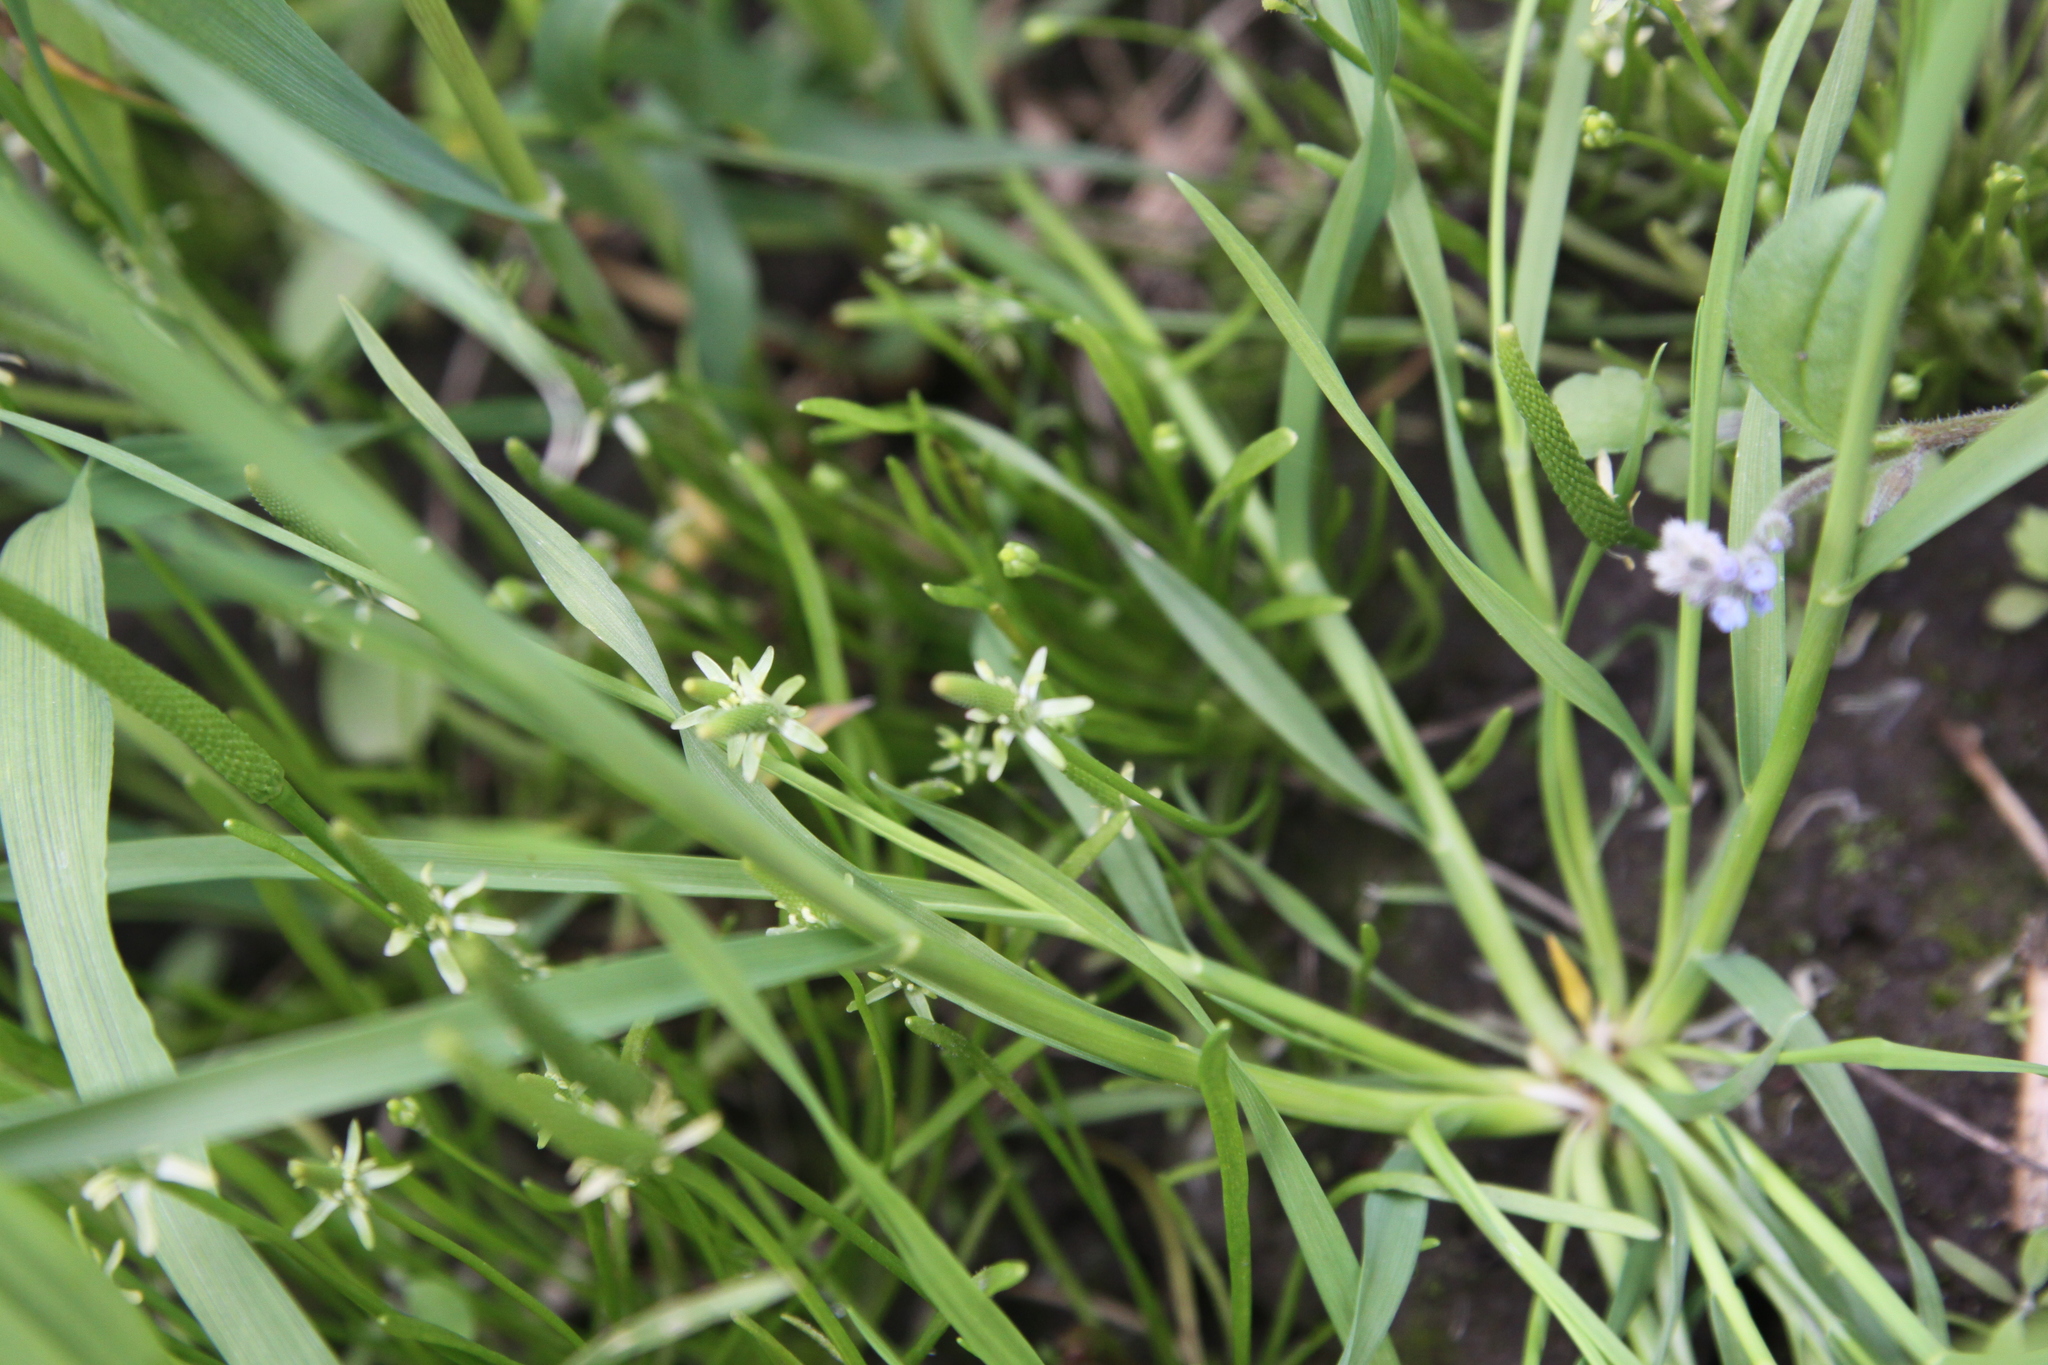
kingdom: Plantae
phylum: Tracheophyta
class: Magnoliopsida
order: Ranunculales
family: Ranunculaceae
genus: Myosurus
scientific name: Myosurus minimus
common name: Mousetail
